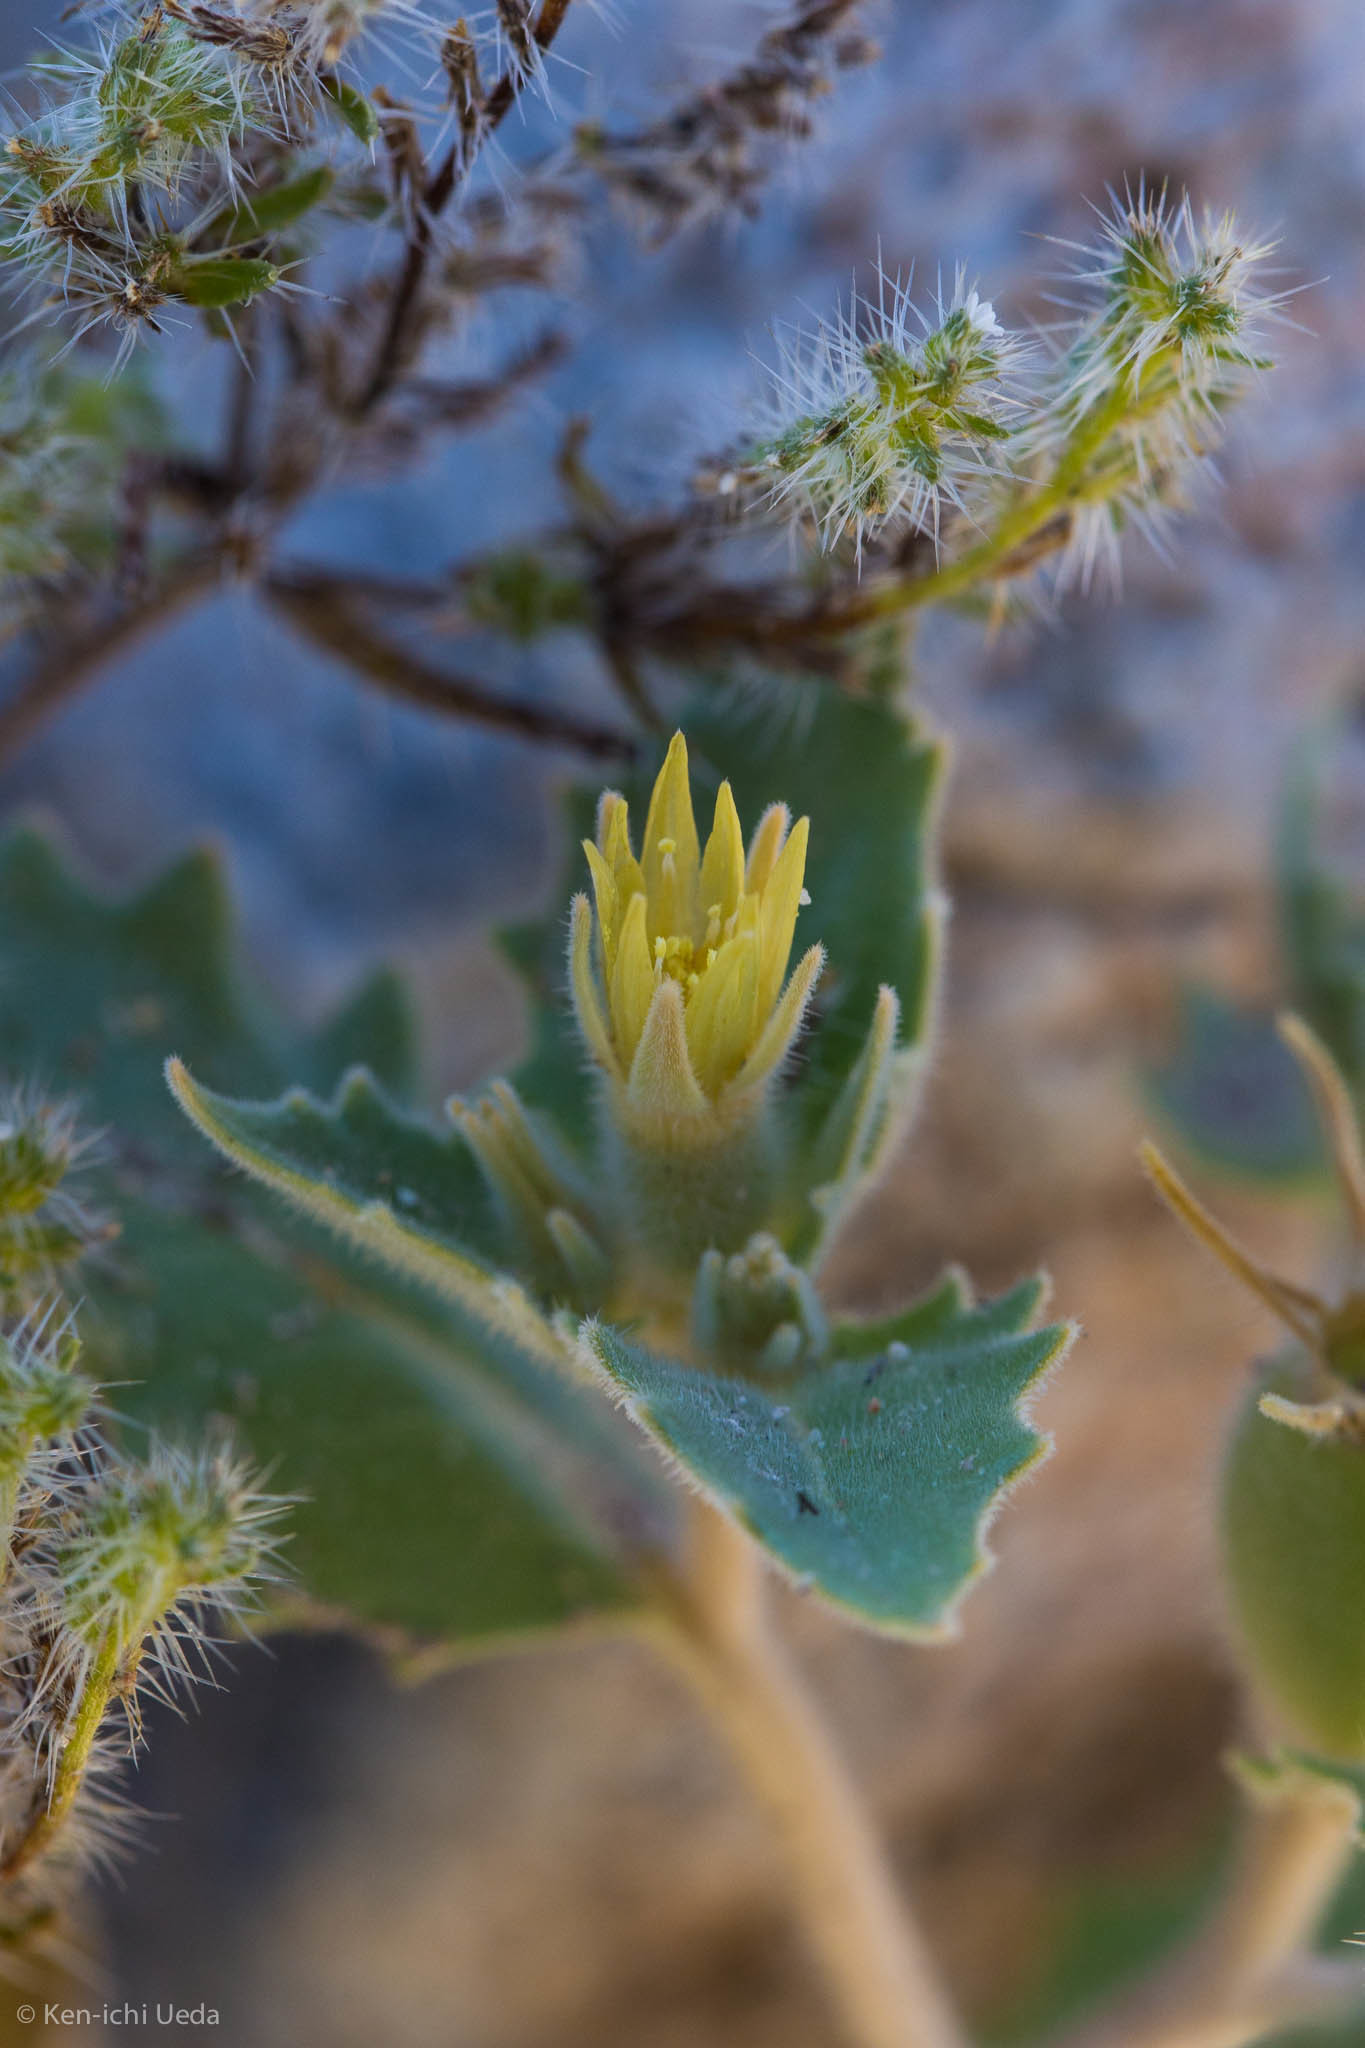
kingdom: Plantae
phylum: Tracheophyta
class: Magnoliopsida
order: Cornales
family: Loasaceae
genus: Mentzelia
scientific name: Mentzelia reflexa
